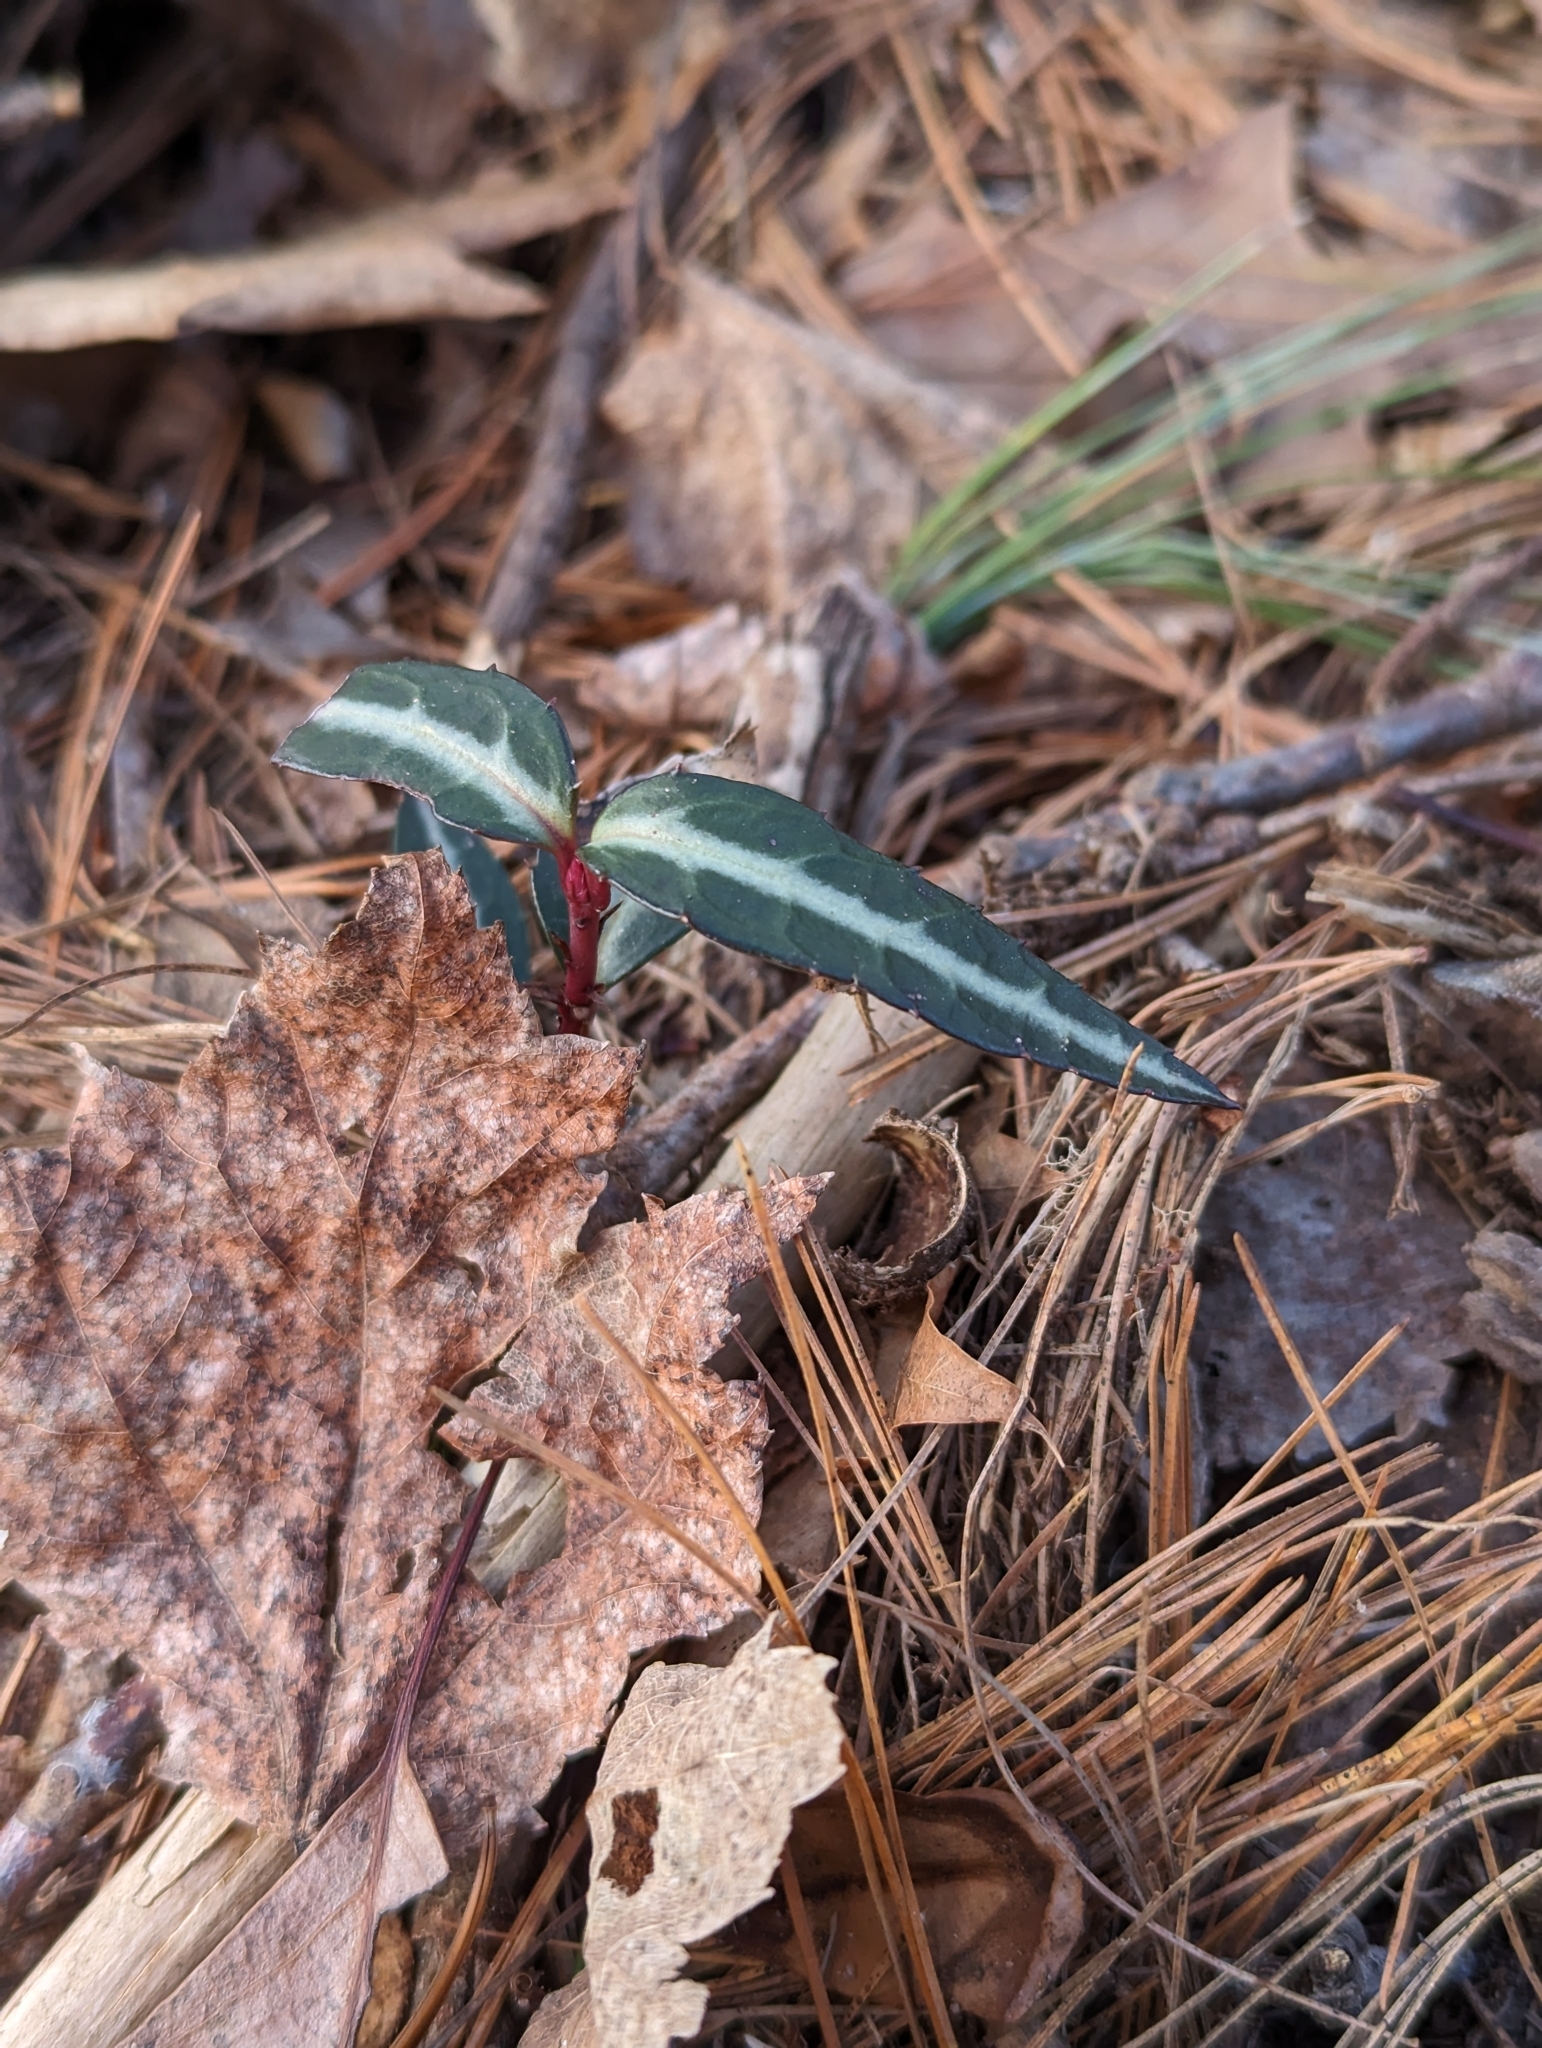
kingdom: Plantae
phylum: Tracheophyta
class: Magnoliopsida
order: Ericales
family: Ericaceae
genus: Chimaphila
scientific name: Chimaphila maculata
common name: Spotted pipsissewa
